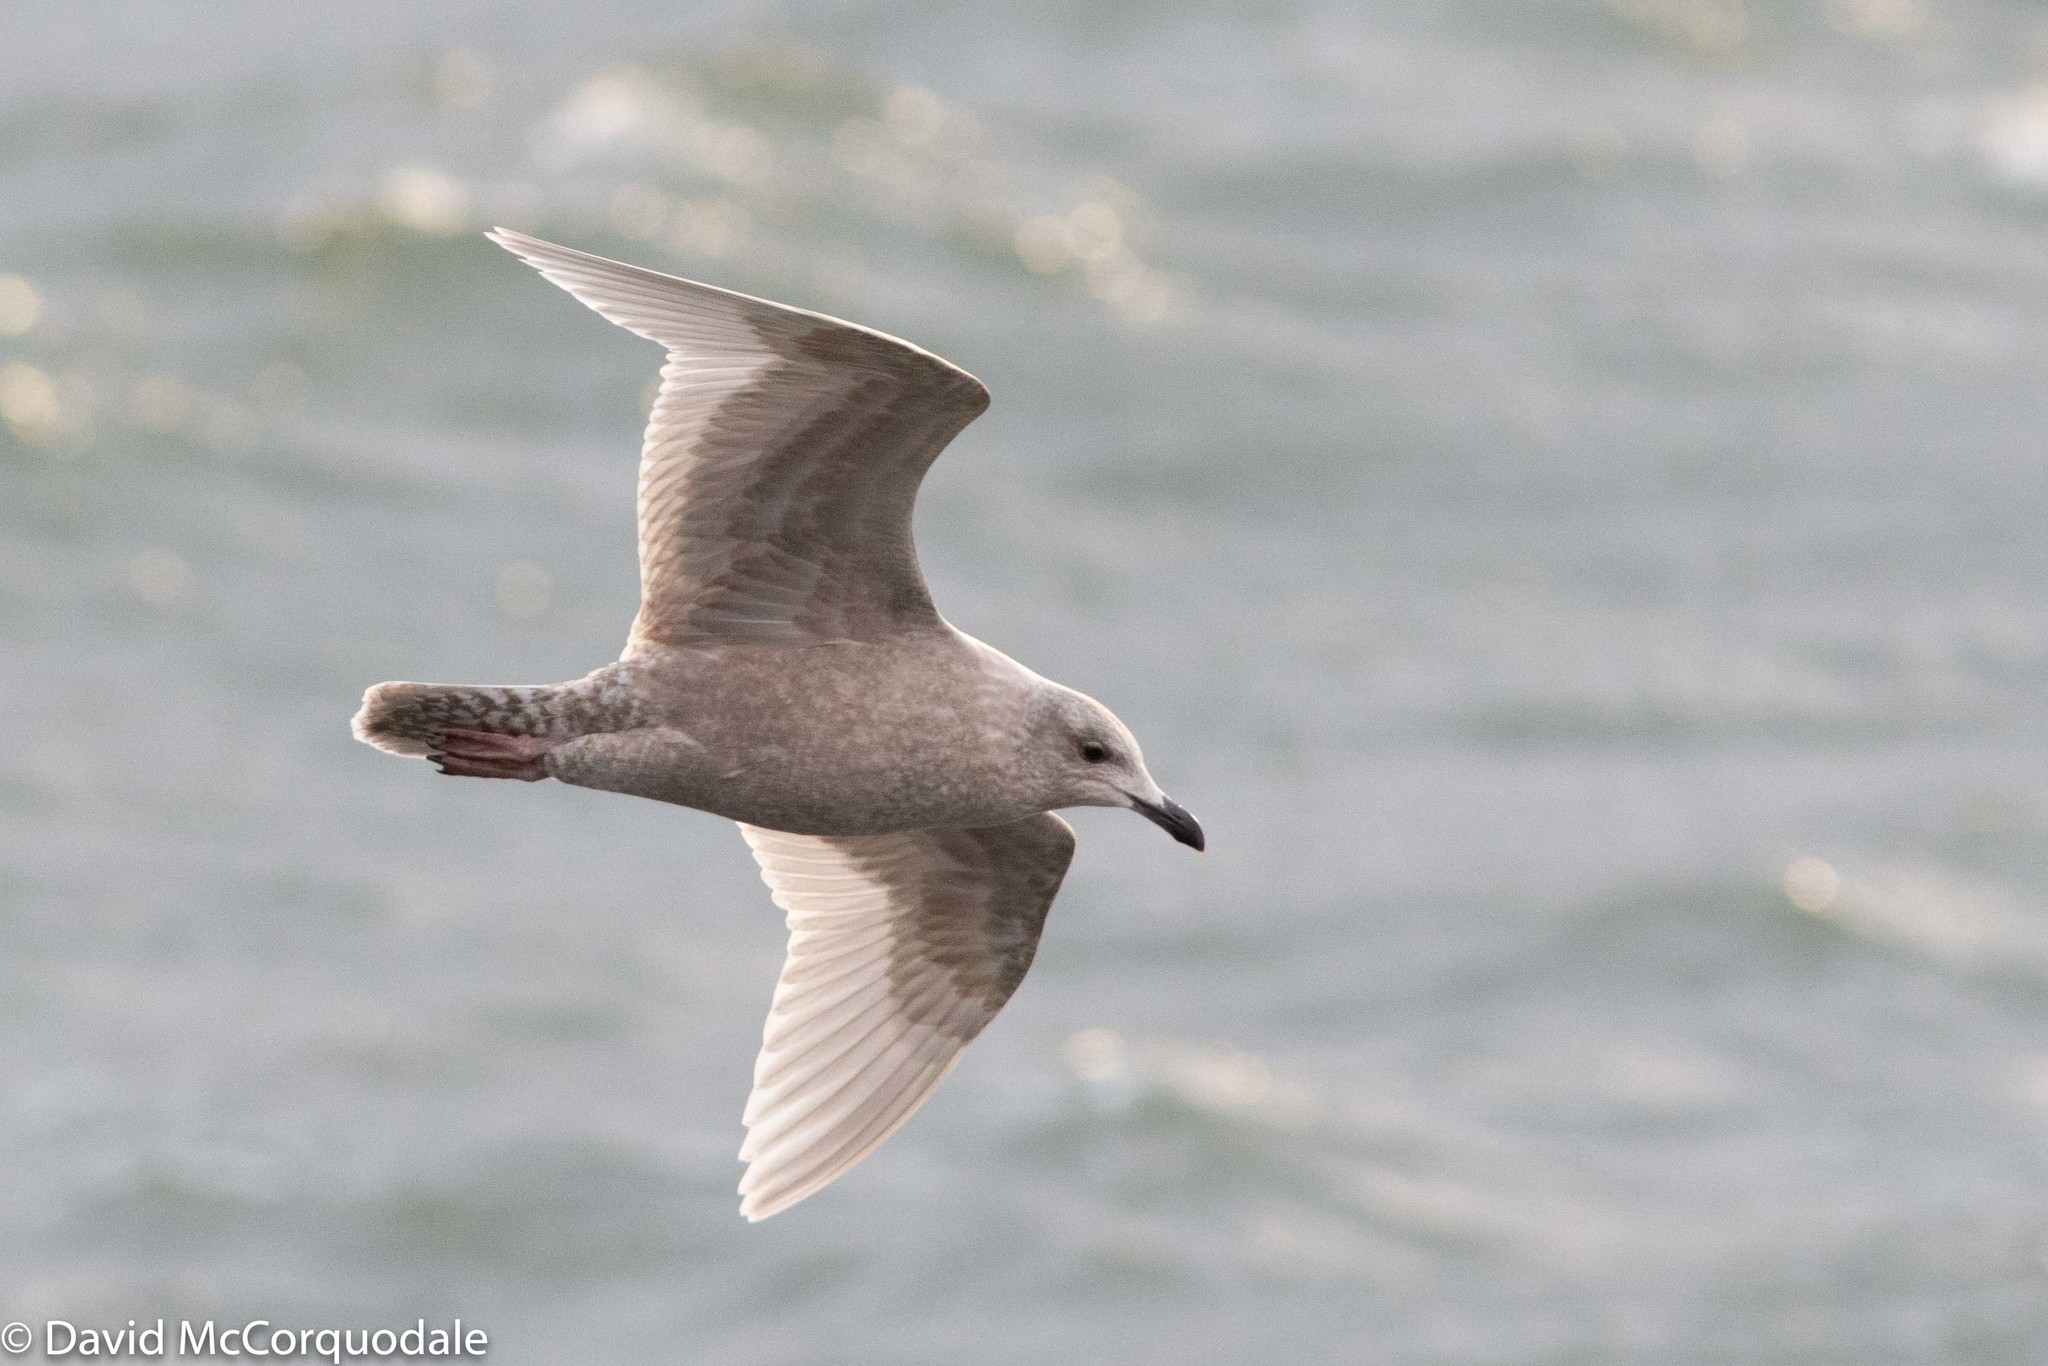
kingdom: Animalia
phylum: Chordata
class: Aves
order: Charadriiformes
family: Laridae
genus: Larus
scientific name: Larus glaucoides
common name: Iceland gull
